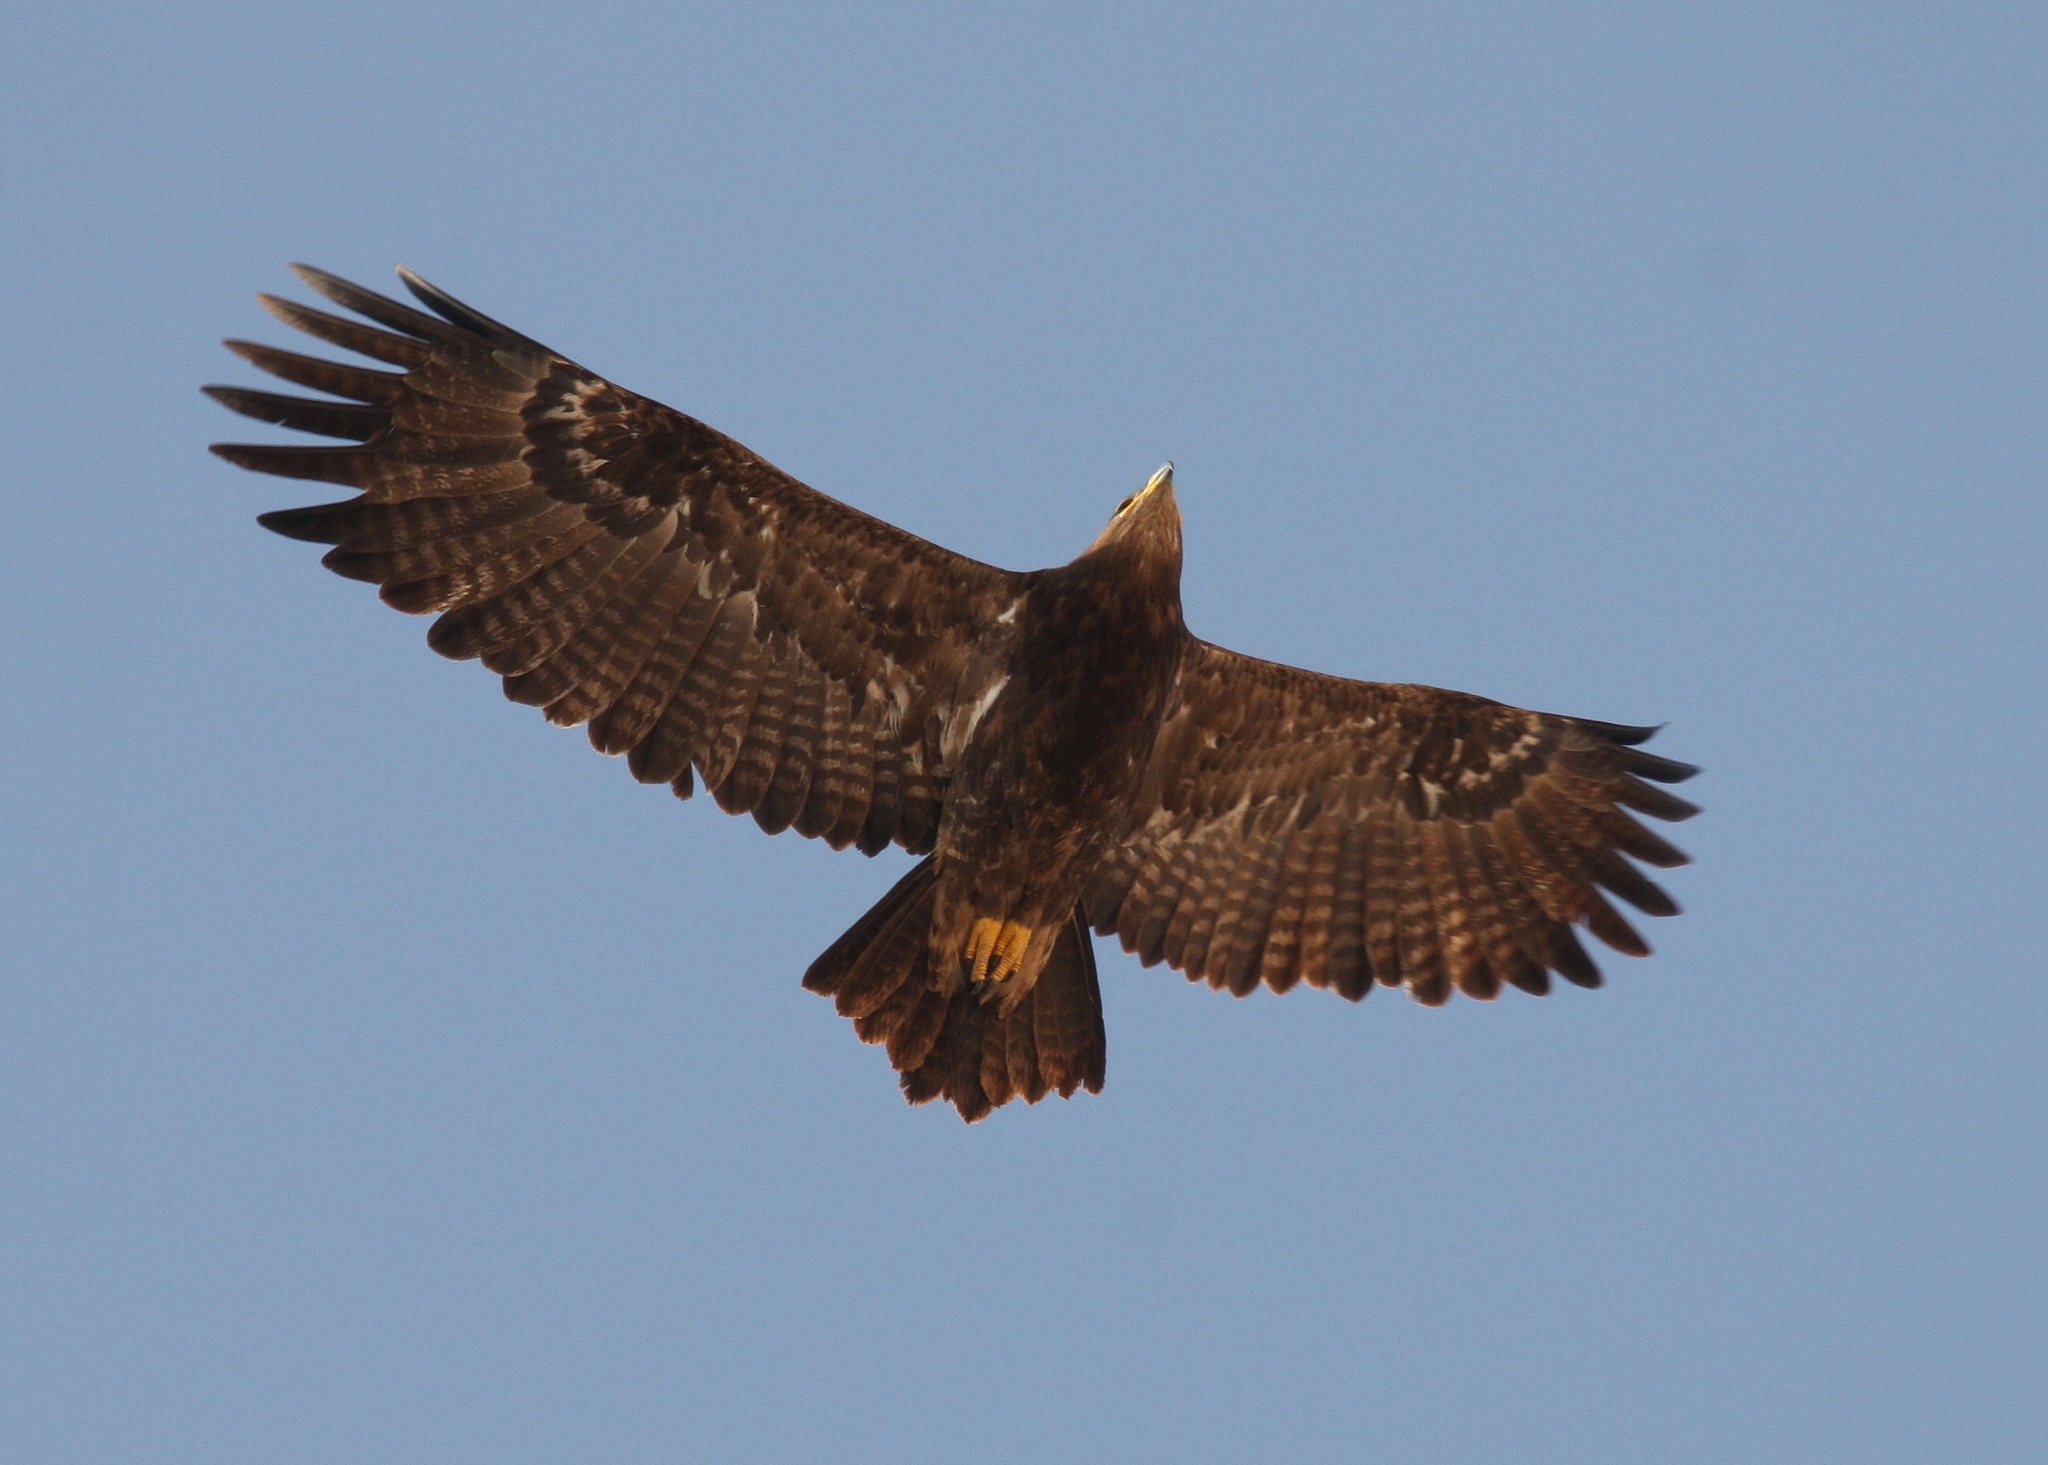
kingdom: Animalia
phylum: Chordata
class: Aves
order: Accipitriformes
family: Accipitridae
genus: Aquila
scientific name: Aquila nipalensis
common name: Steppe eagle
